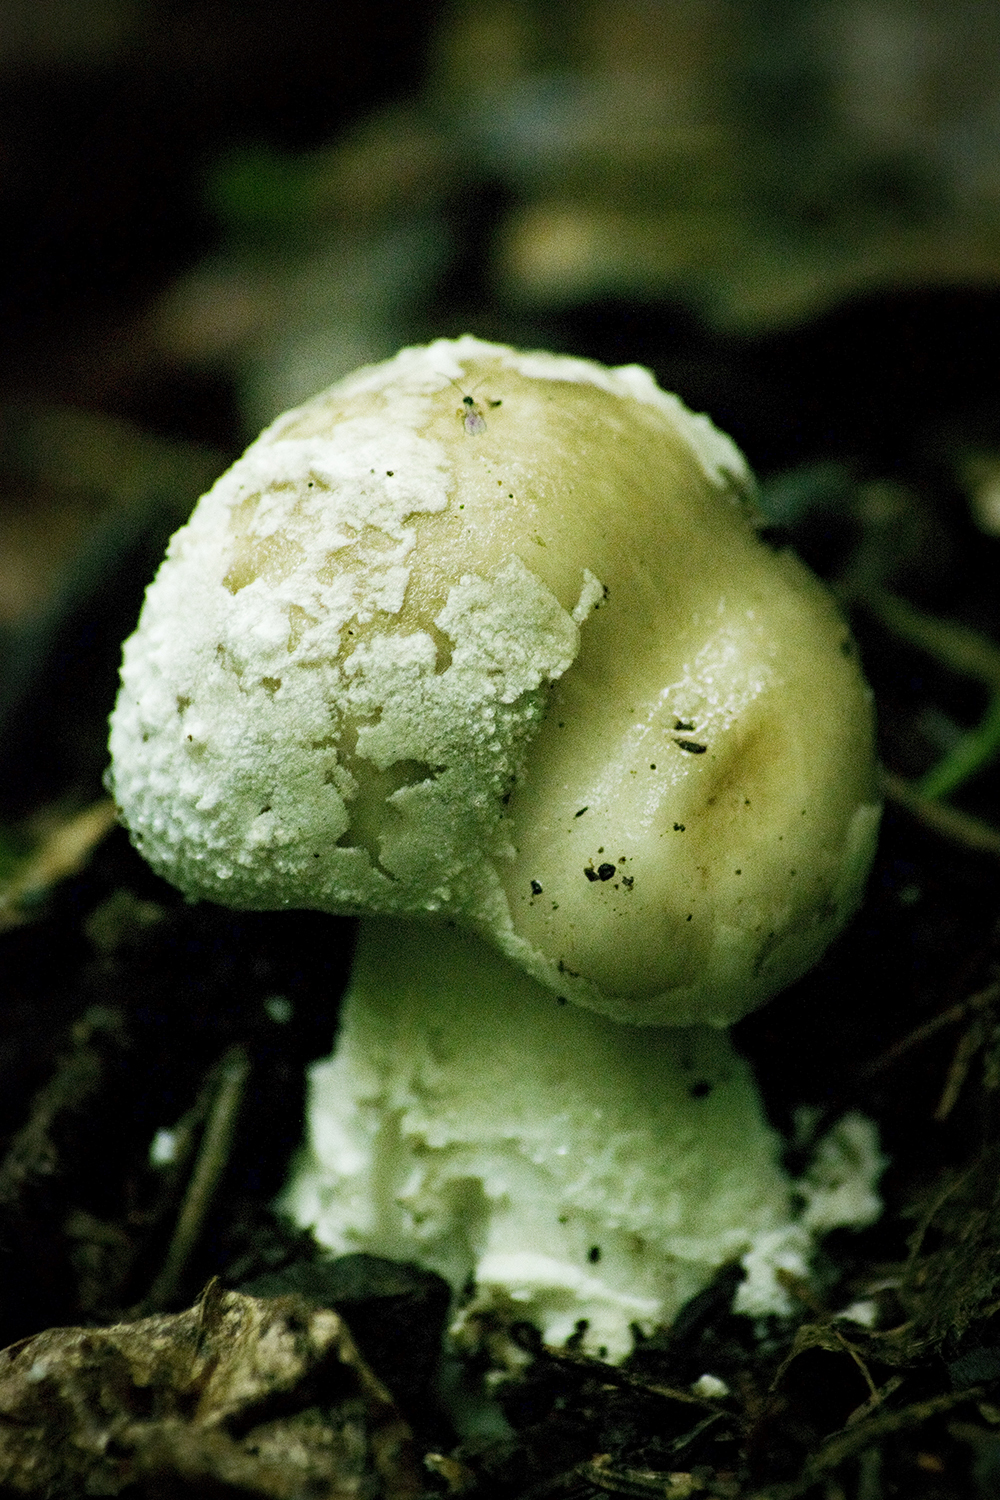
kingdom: Fungi
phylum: Basidiomycota
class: Agaricomycetes
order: Agaricales
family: Amanitaceae
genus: Amanita
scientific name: Amanita excelsa
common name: European false blusher
